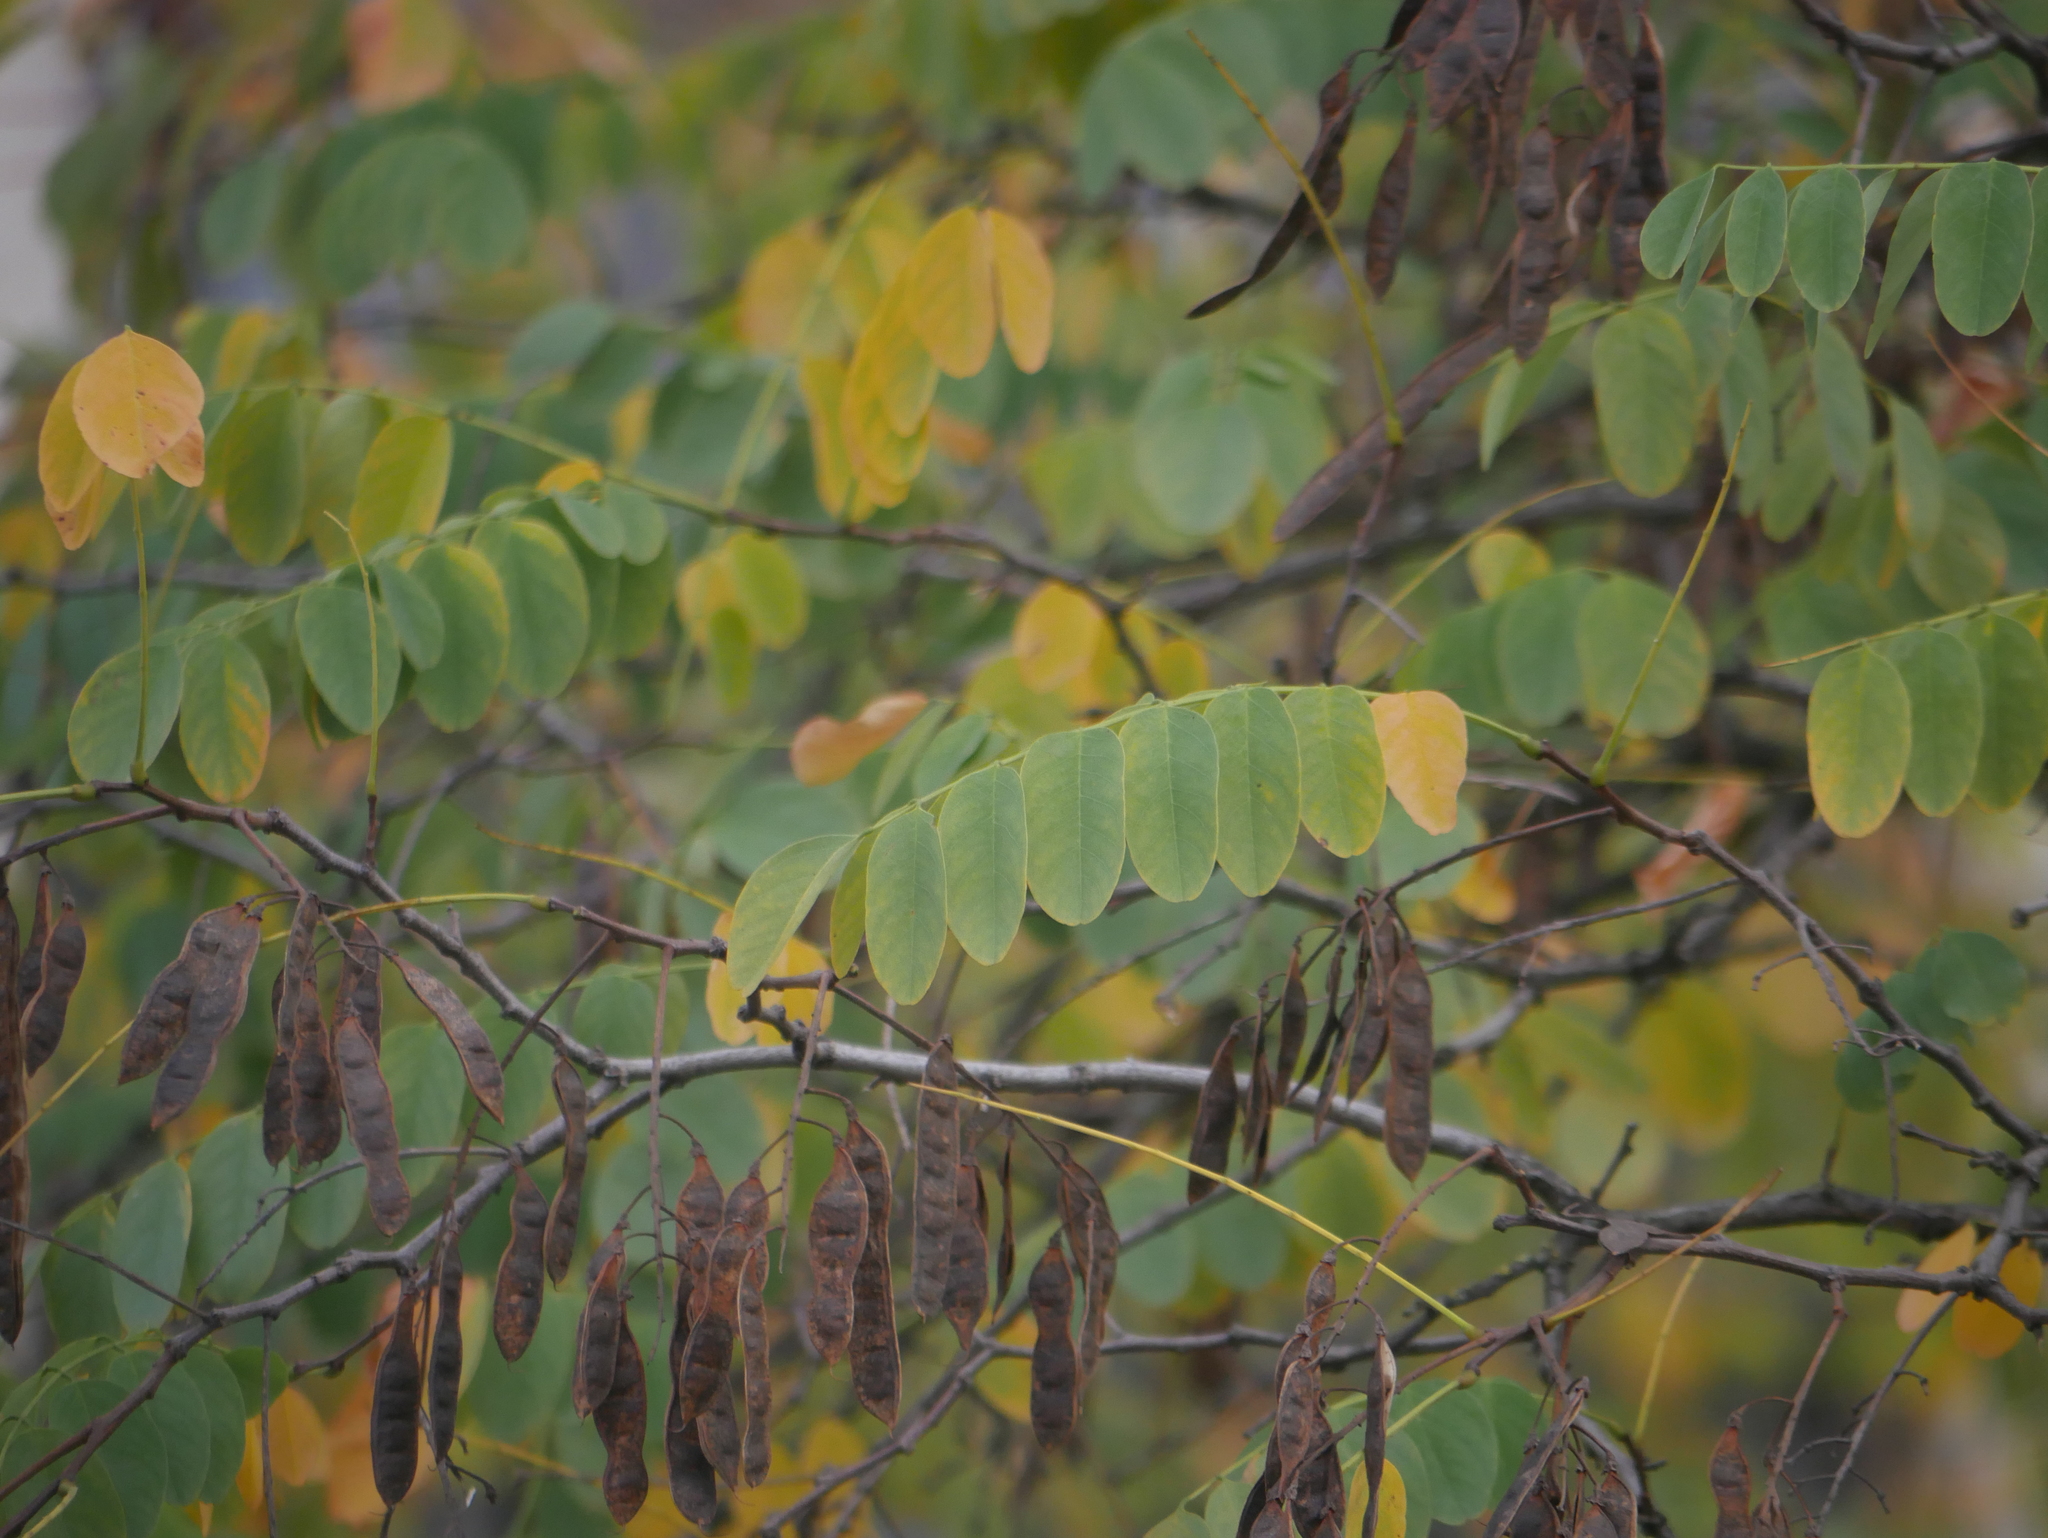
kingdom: Plantae
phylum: Tracheophyta
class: Magnoliopsida
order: Fabales
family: Fabaceae
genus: Robinia
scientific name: Robinia pseudoacacia
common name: Black locust
